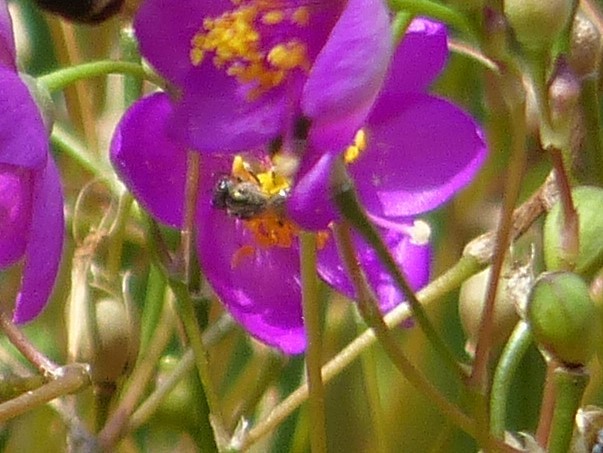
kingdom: Animalia
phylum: Arthropoda
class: Insecta
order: Hymenoptera
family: Halictidae
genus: Dialictus
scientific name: Dialictus
